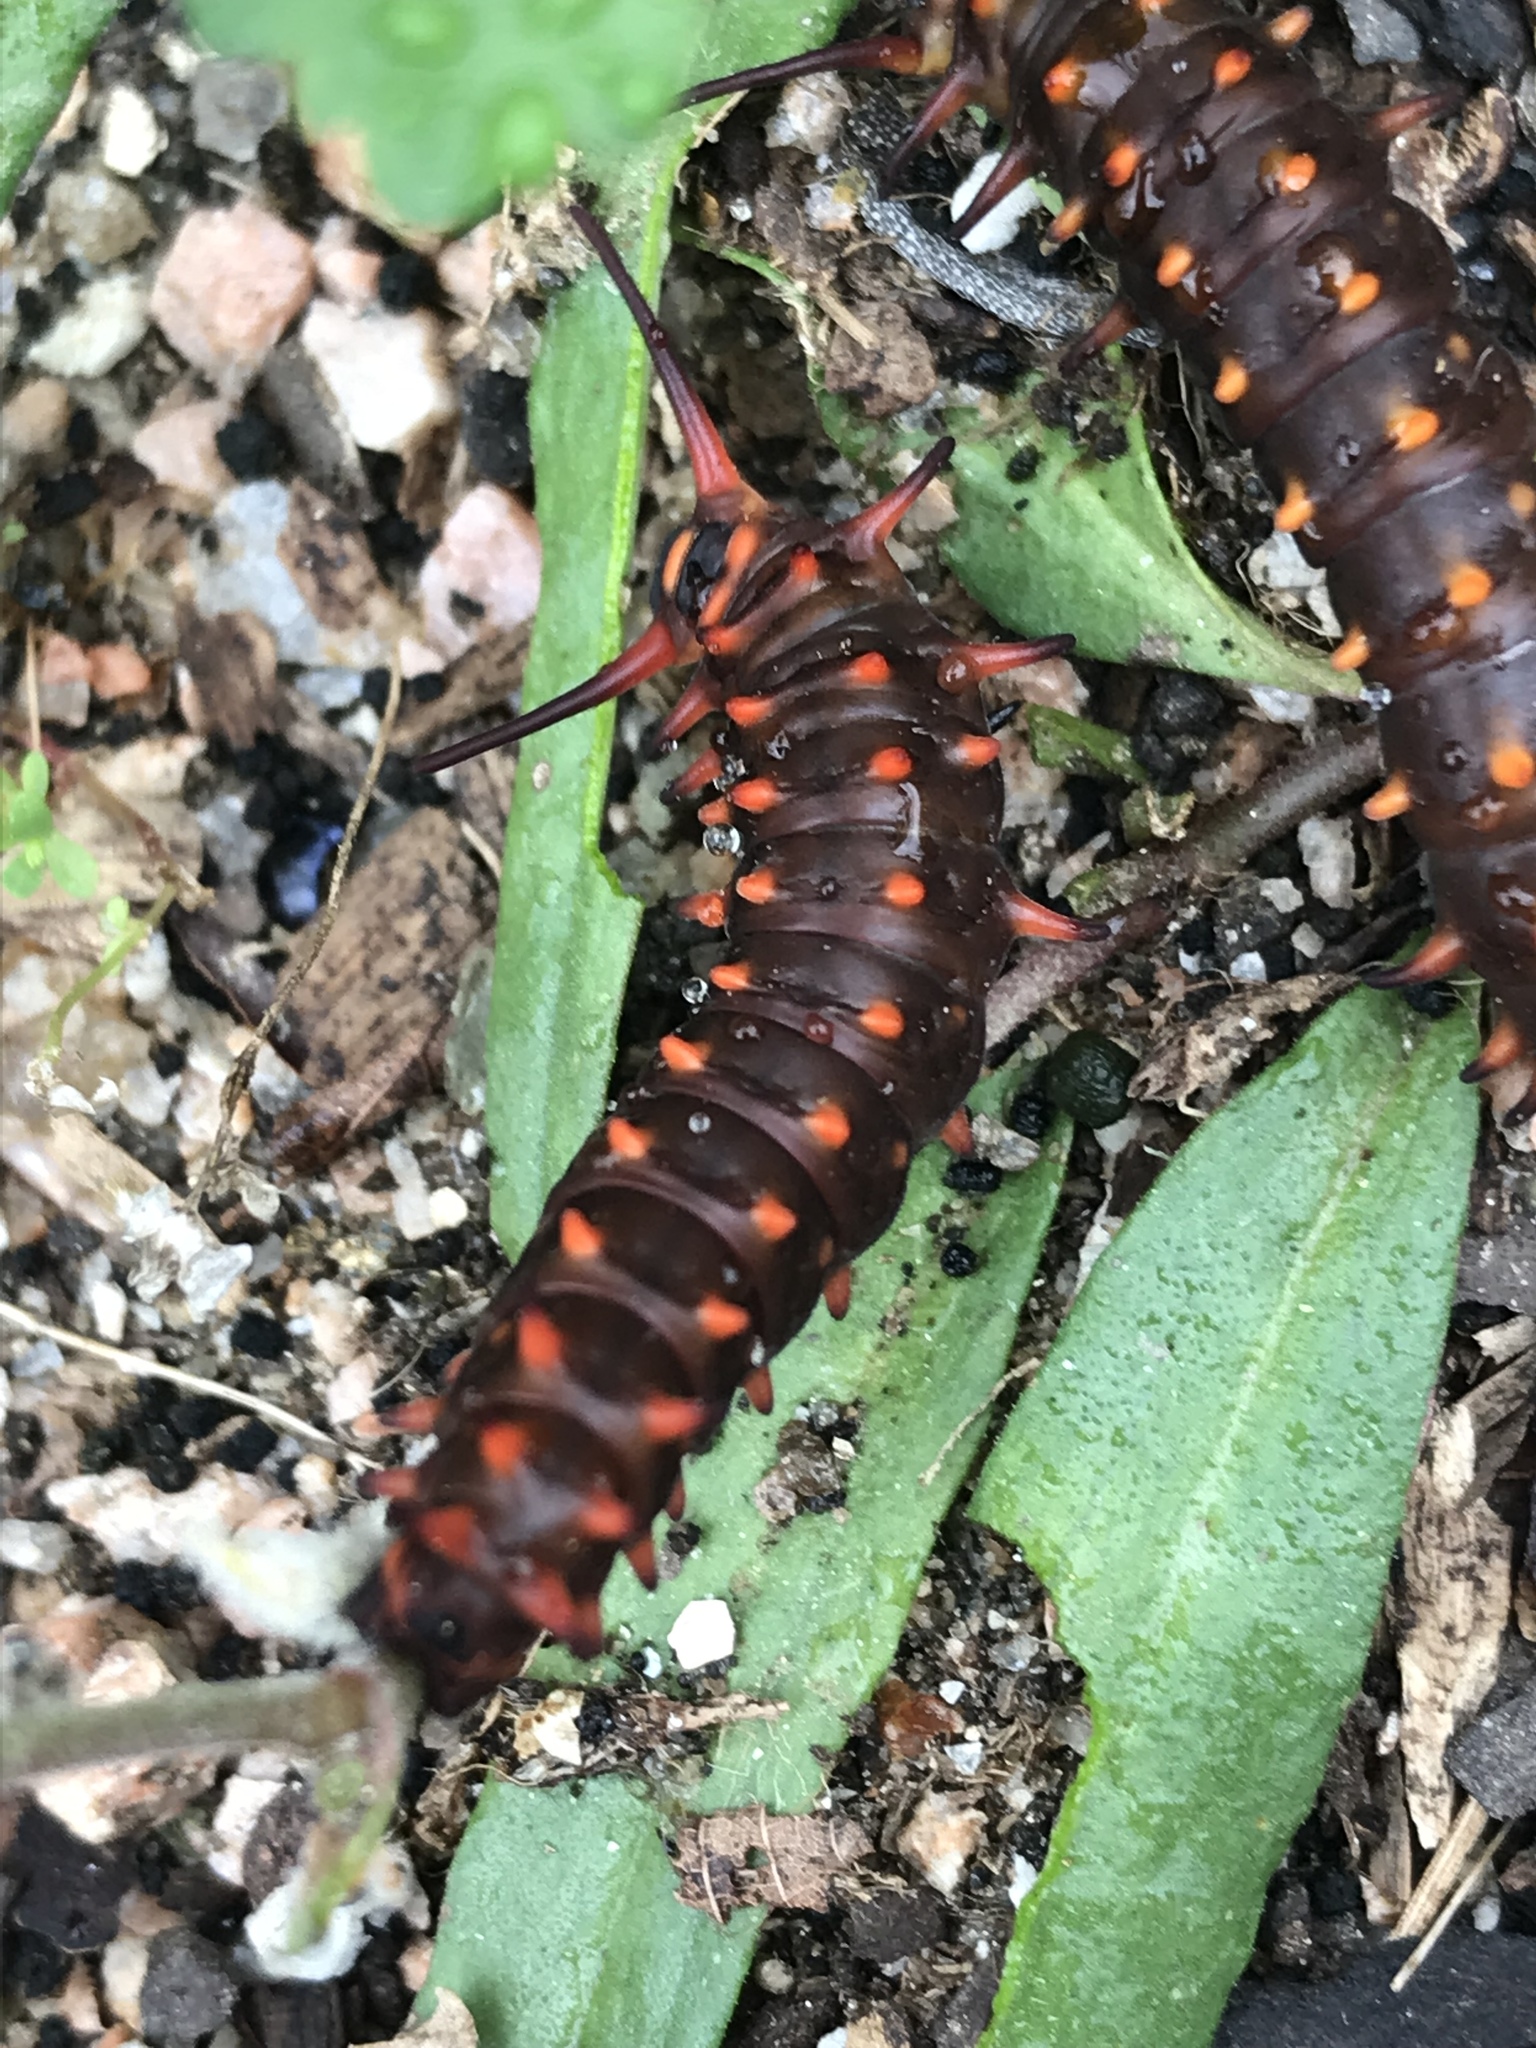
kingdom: Animalia
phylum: Arthropoda
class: Insecta
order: Lepidoptera
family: Papilionidae
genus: Battus
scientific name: Battus philenor
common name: Pipevine swallowtail
